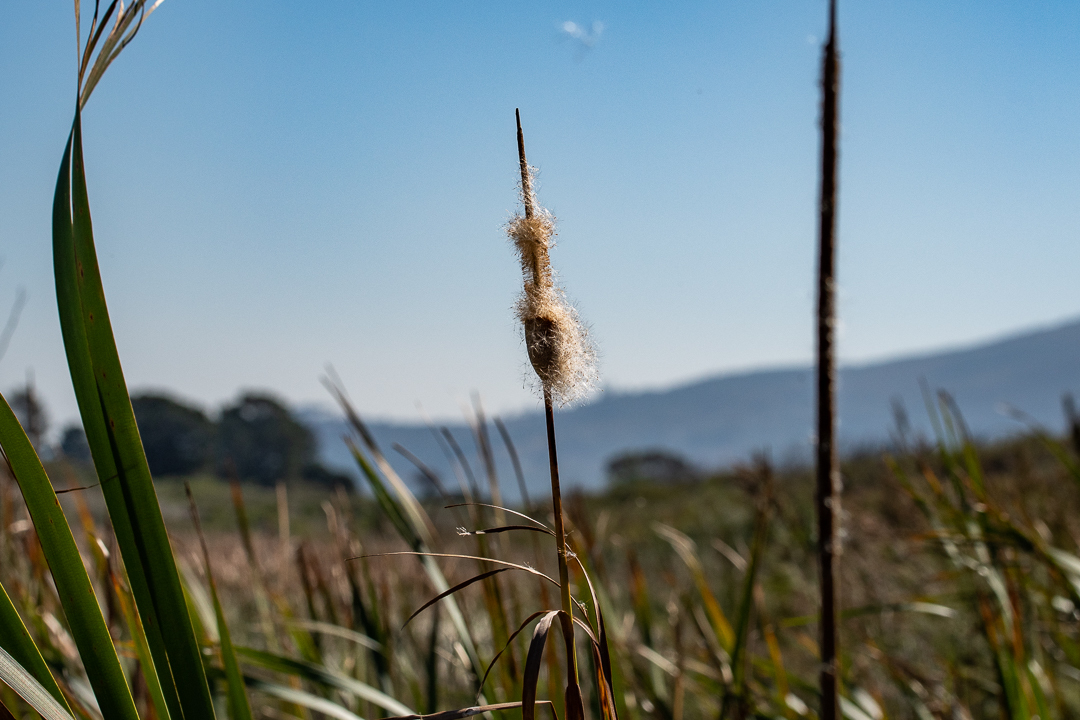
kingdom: Plantae
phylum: Tracheophyta
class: Liliopsida
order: Poales
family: Typhaceae
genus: Typha
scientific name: Typha capensis
